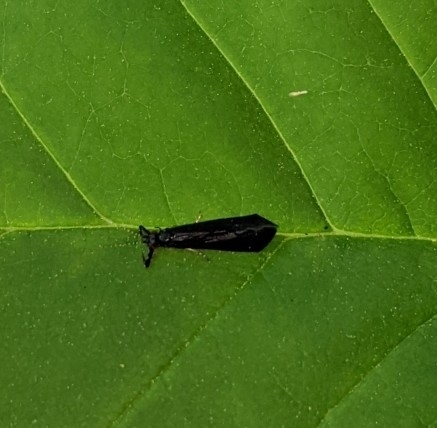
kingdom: Animalia
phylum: Arthropoda
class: Insecta
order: Trichoptera
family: Leptoceridae
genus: Mystacides
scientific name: Mystacides sepulchralis
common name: Black dancer caddisfly
